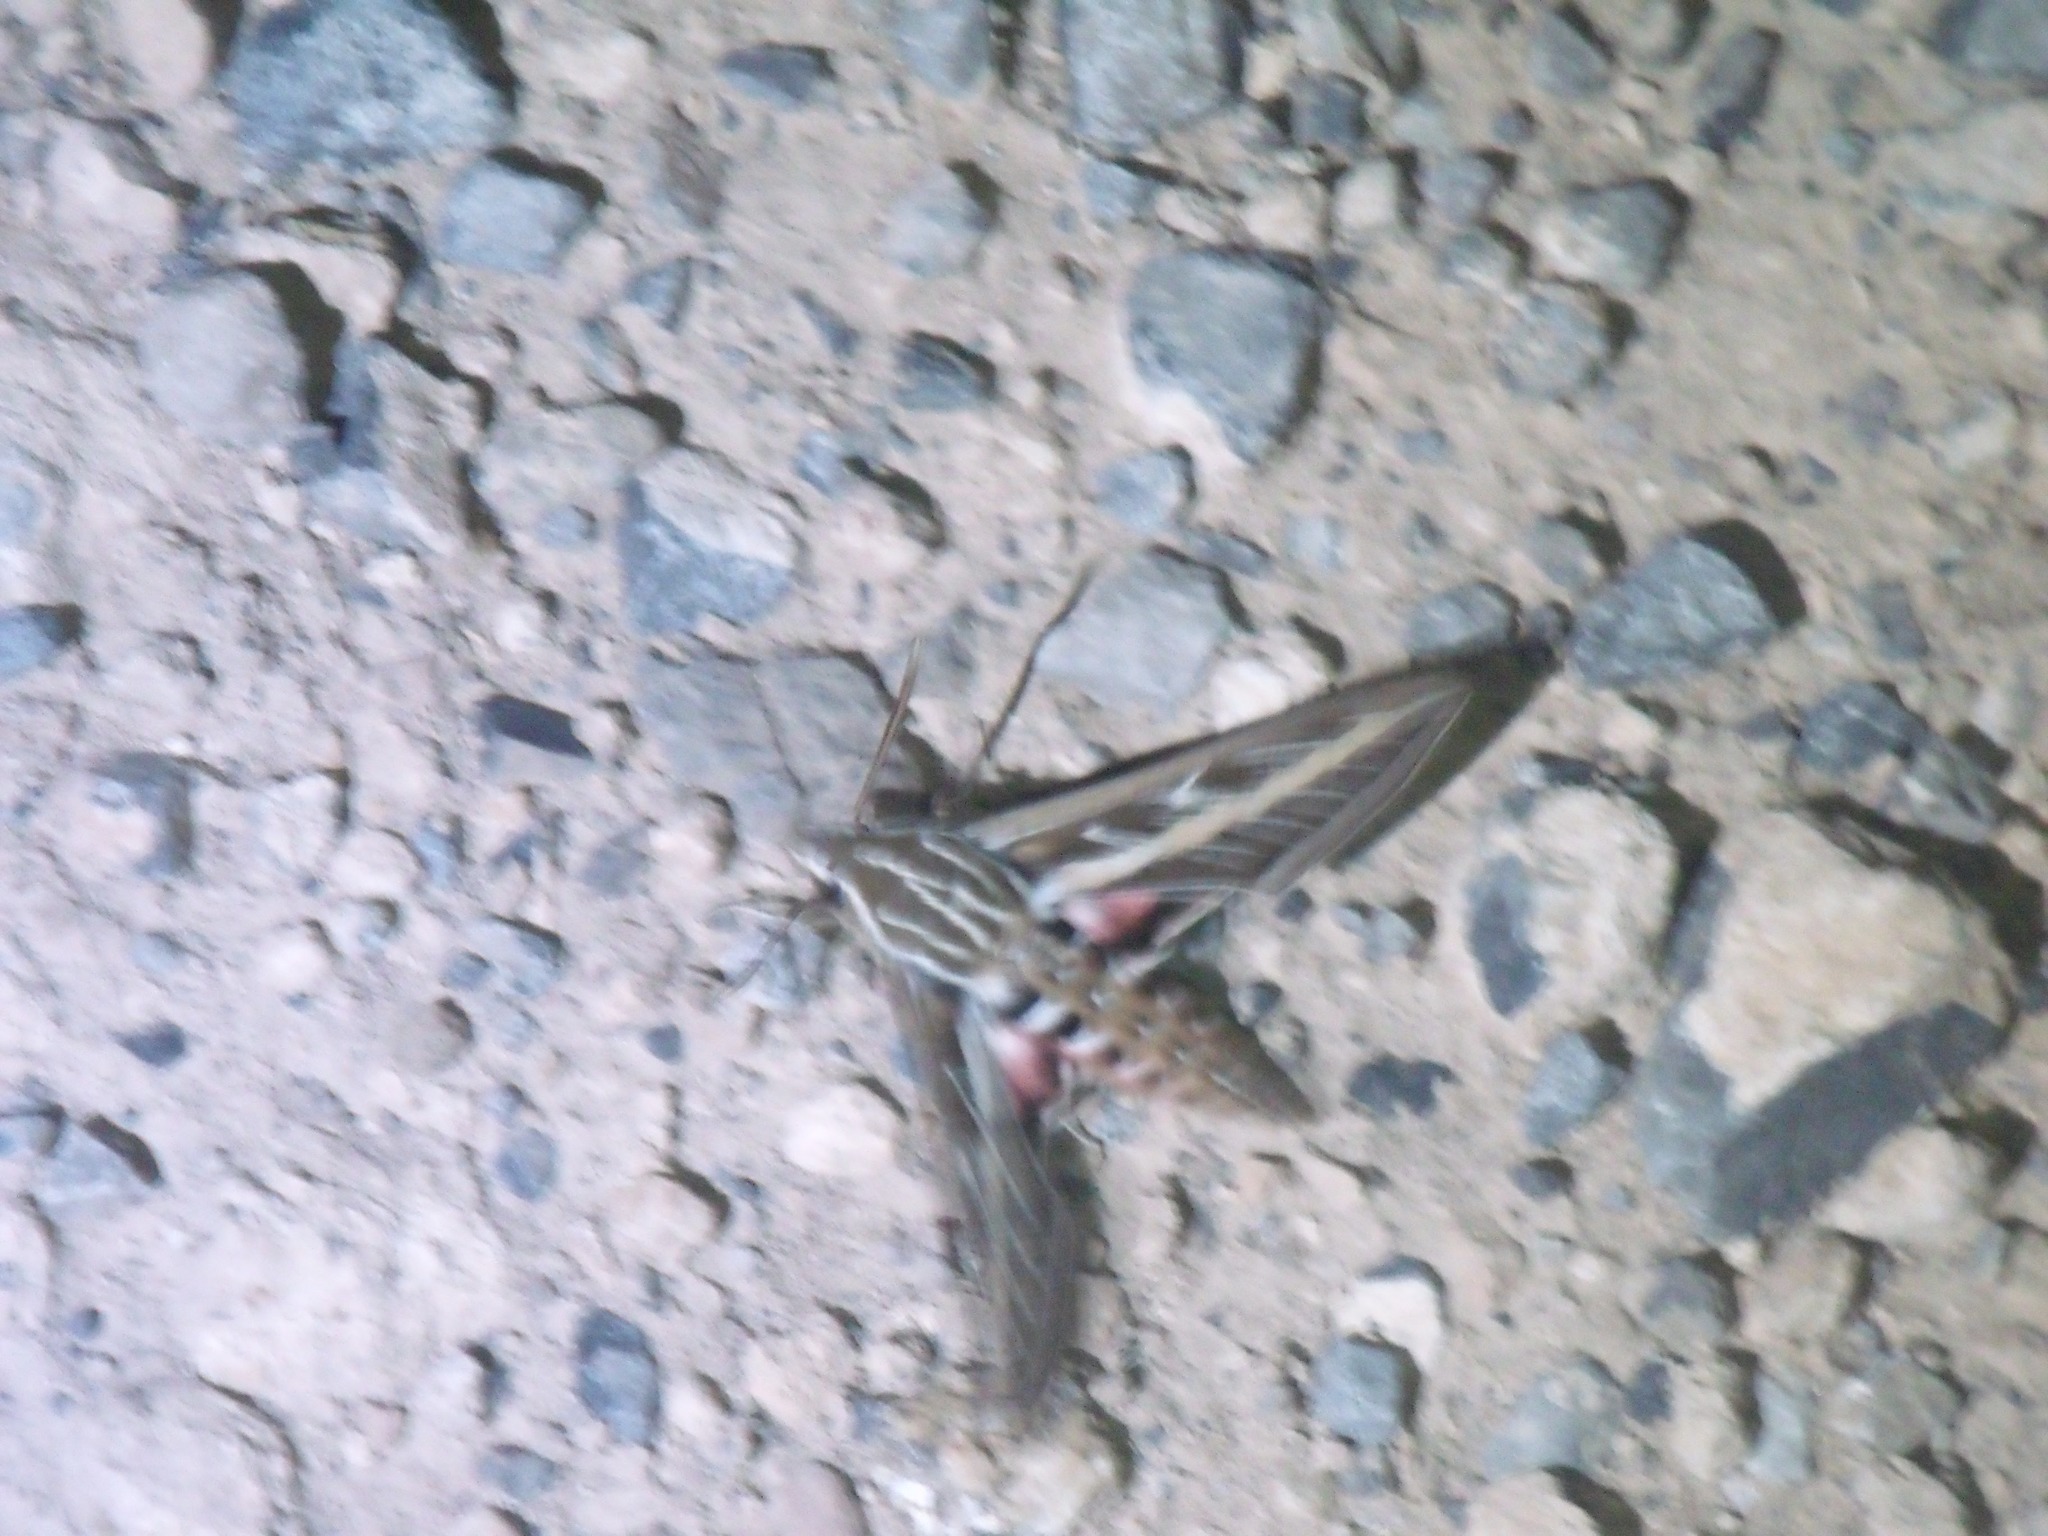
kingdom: Animalia
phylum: Arthropoda
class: Insecta
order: Lepidoptera
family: Sphingidae
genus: Hyles
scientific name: Hyles lineata
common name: White-lined sphinx
